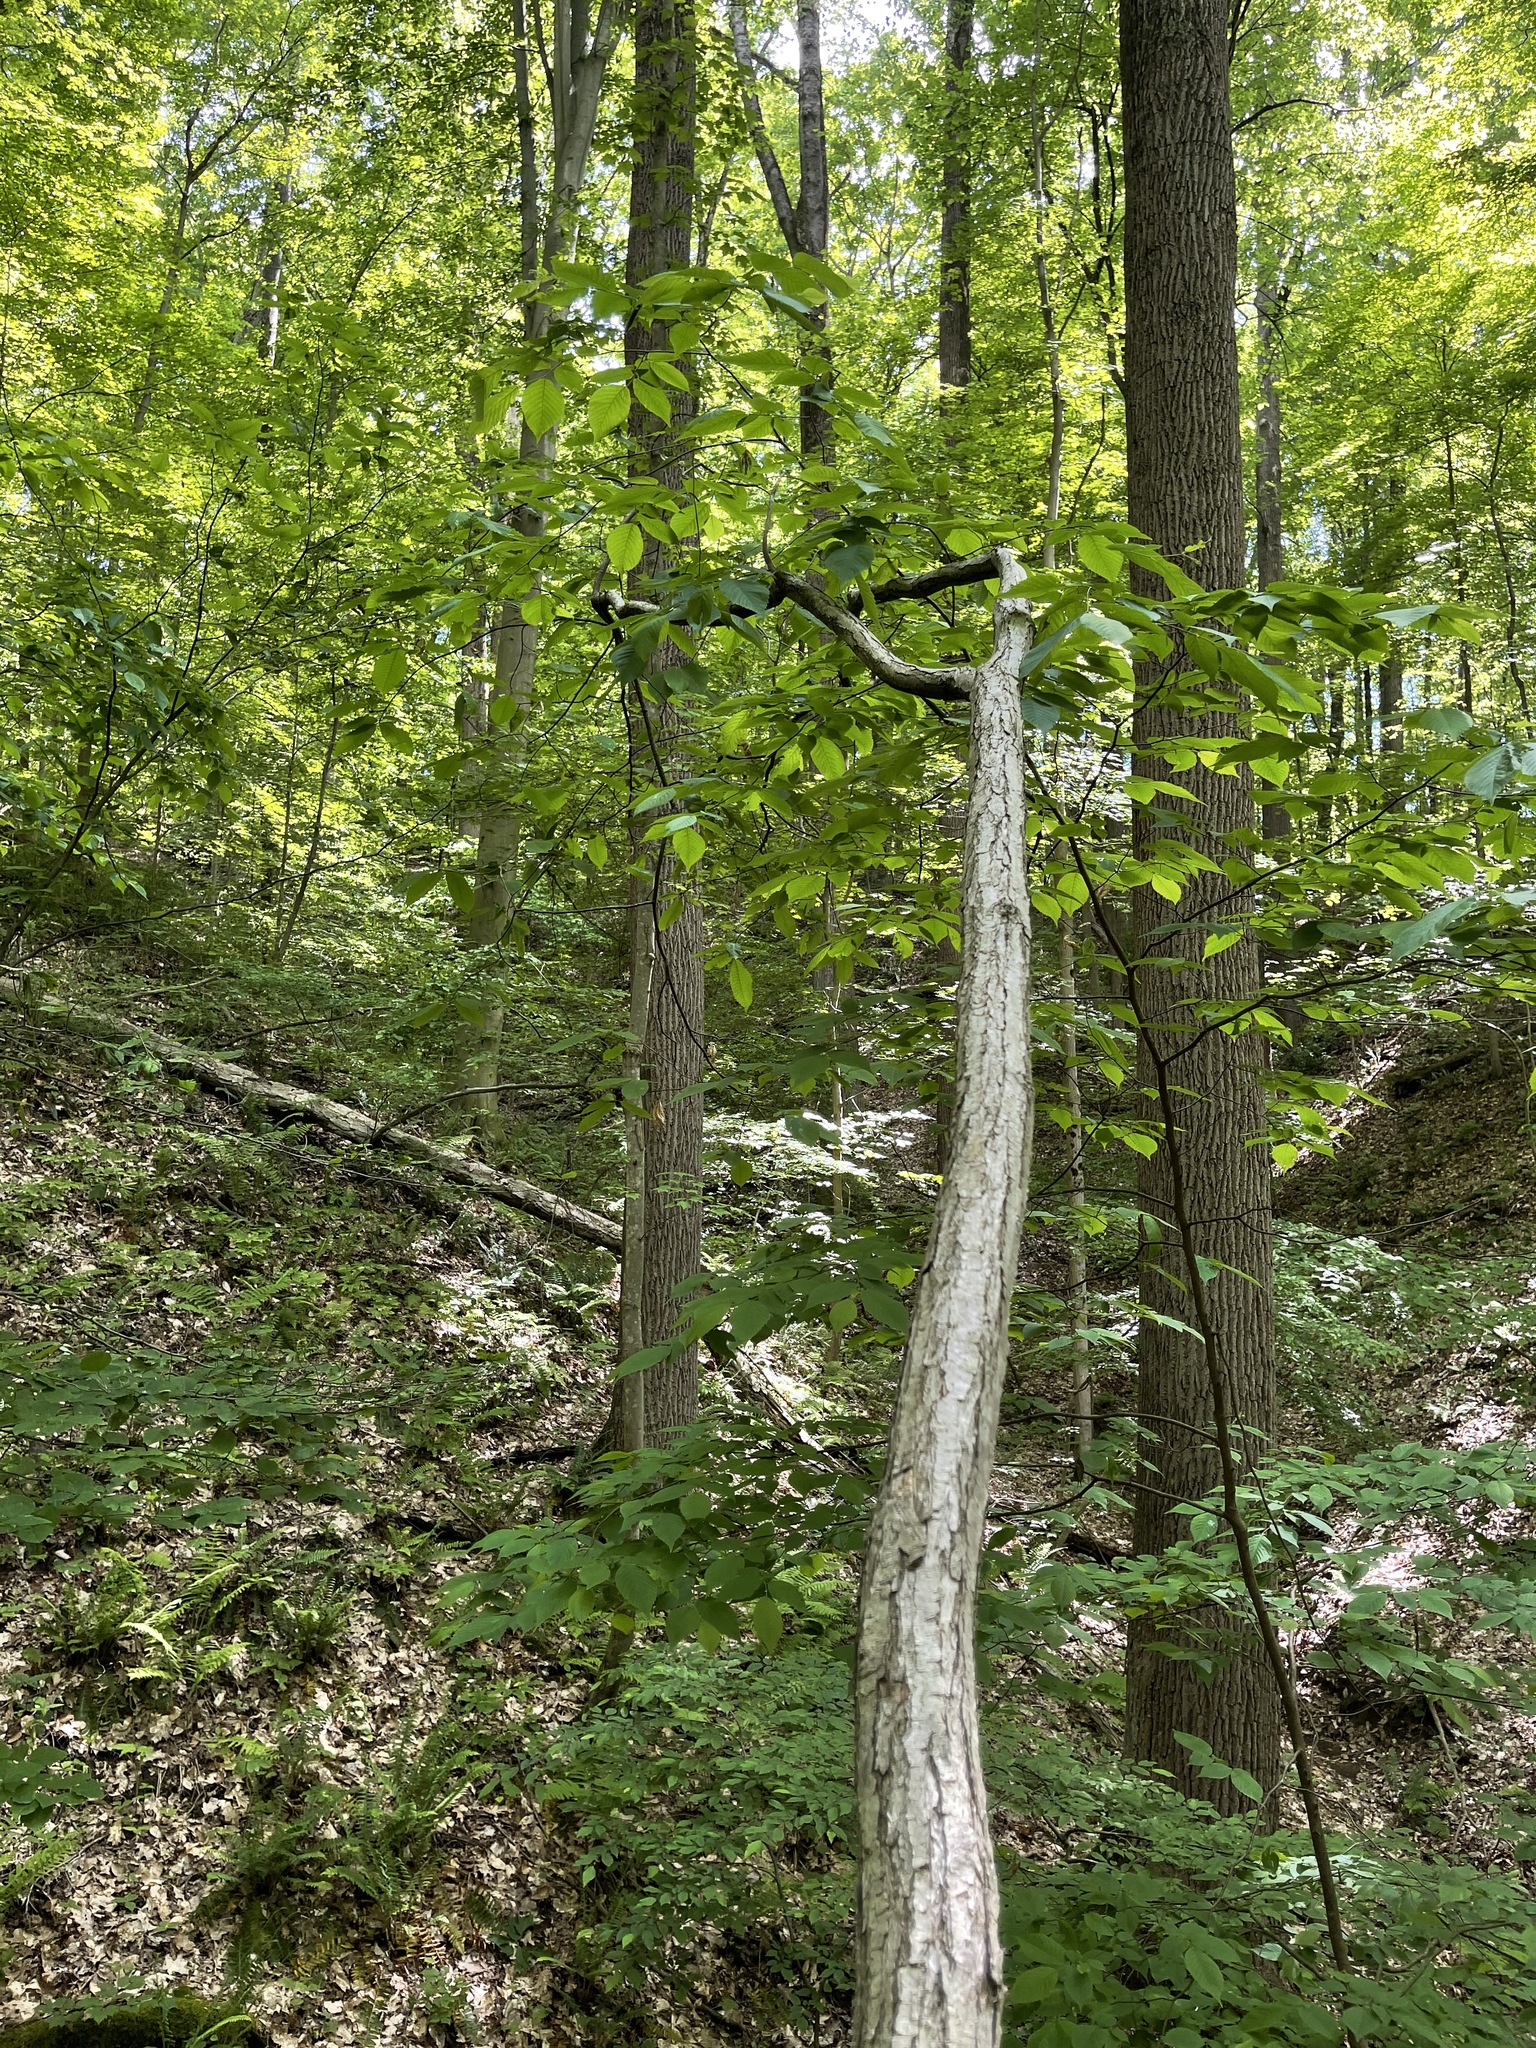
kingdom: Plantae
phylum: Tracheophyta
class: Magnoliopsida
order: Fagales
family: Fagaceae
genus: Castanea
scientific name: Castanea dentata
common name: American chestnut
